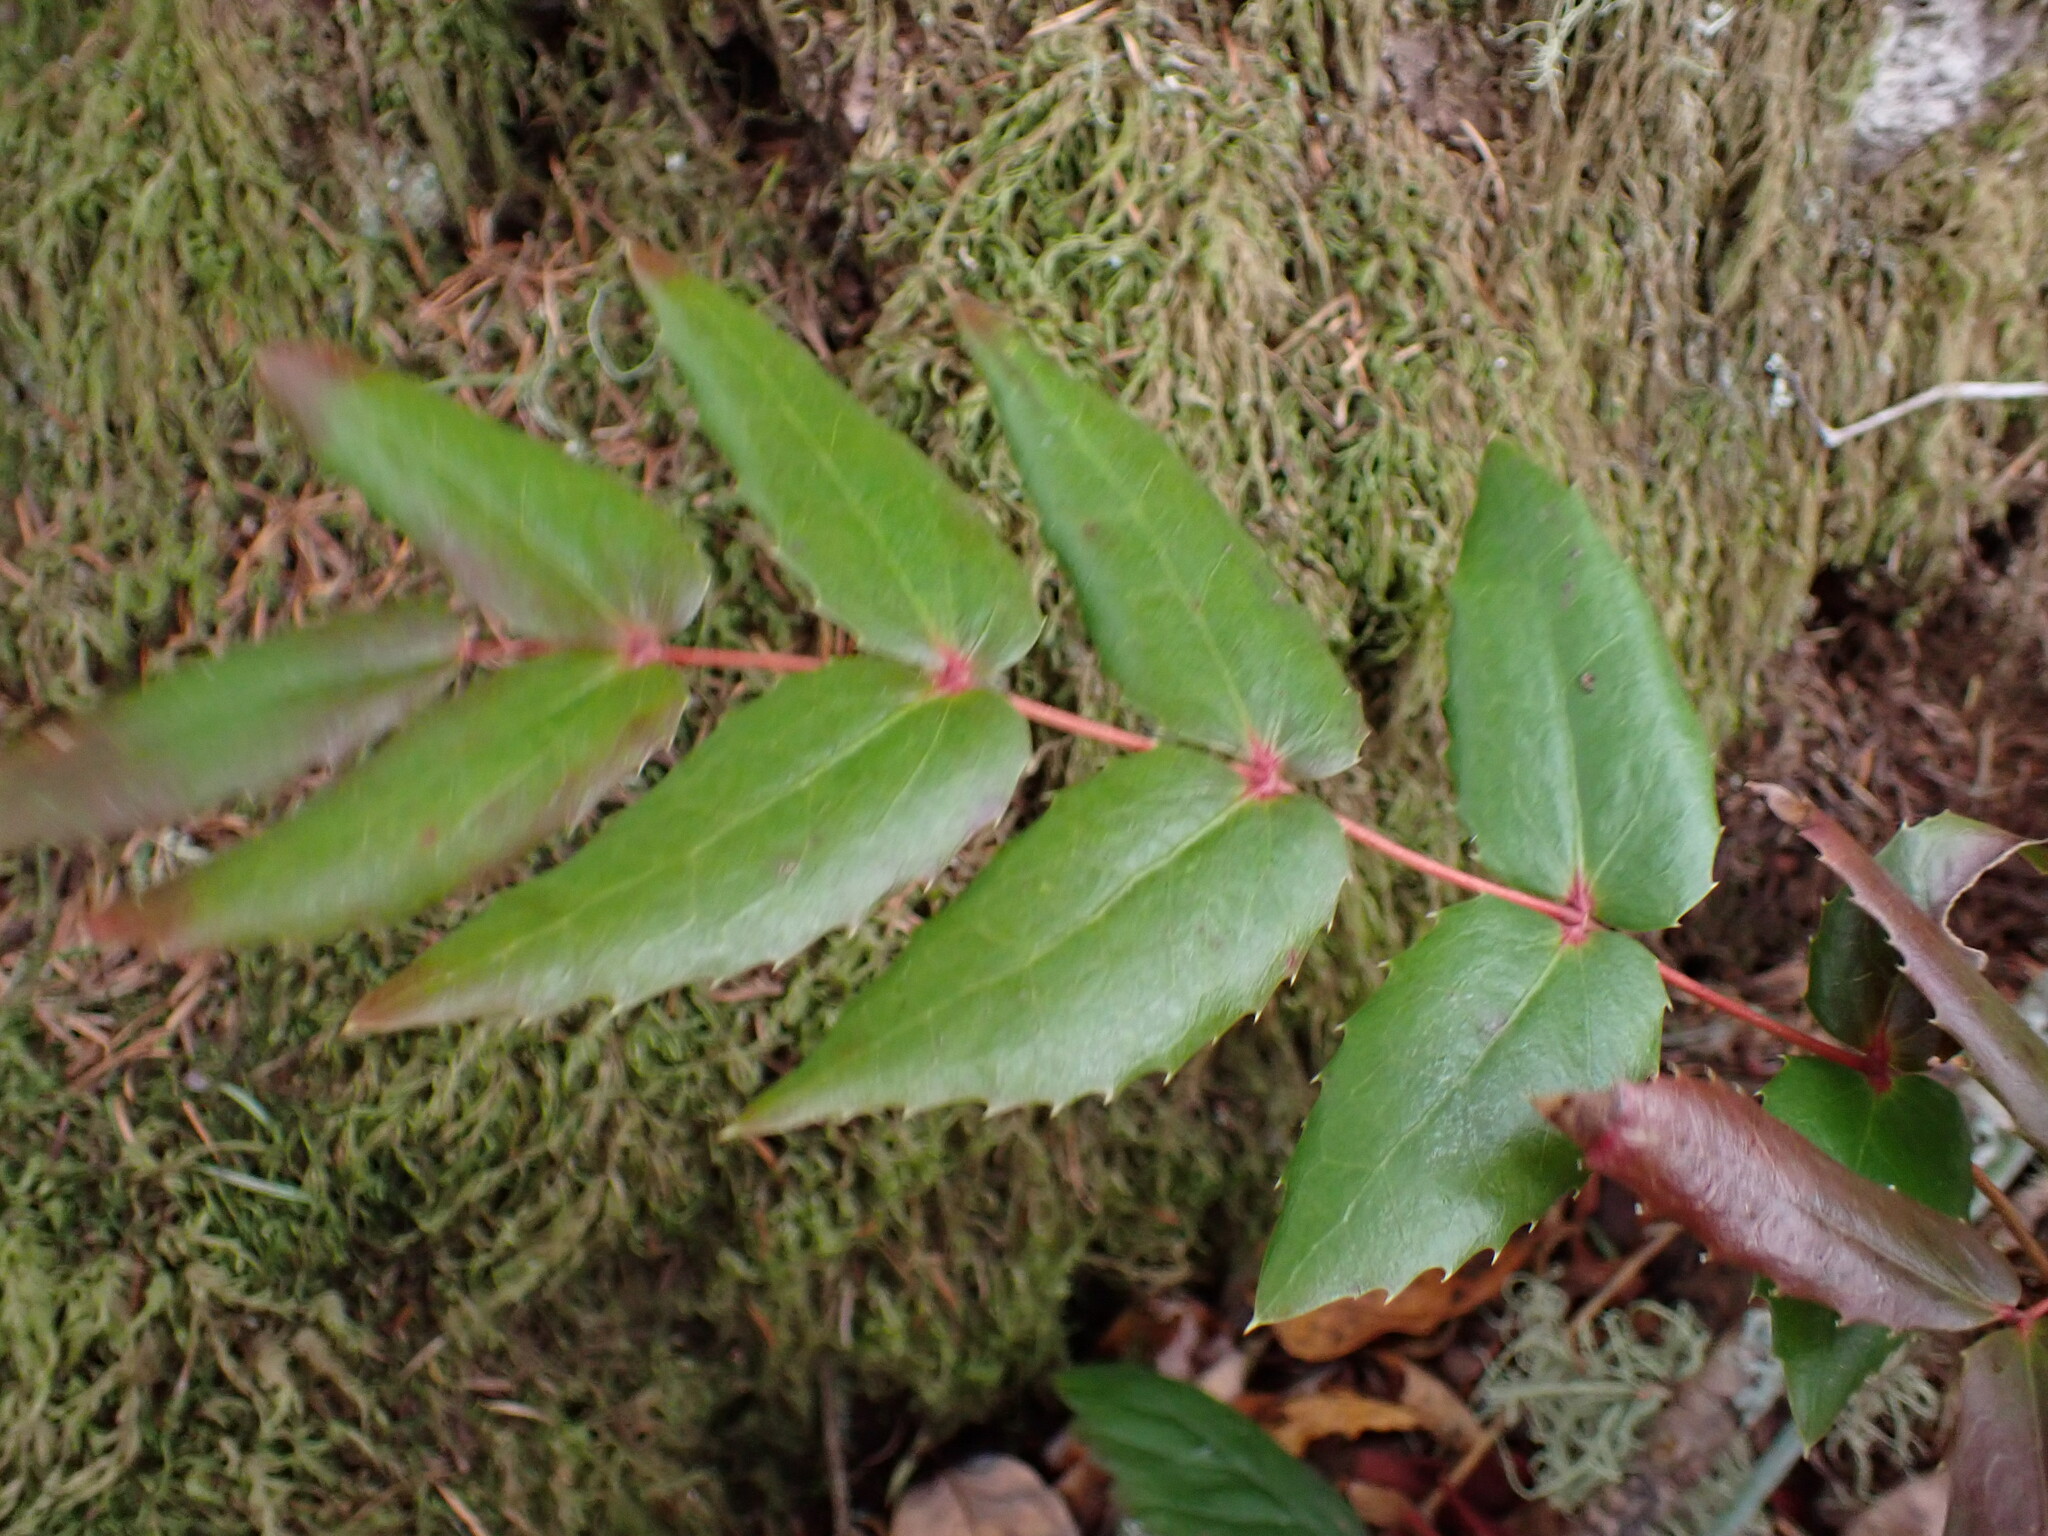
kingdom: Plantae
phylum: Tracheophyta
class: Magnoliopsida
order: Ranunculales
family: Berberidaceae
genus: Mahonia
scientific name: Mahonia nervosa
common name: Cascade oregon-grape
